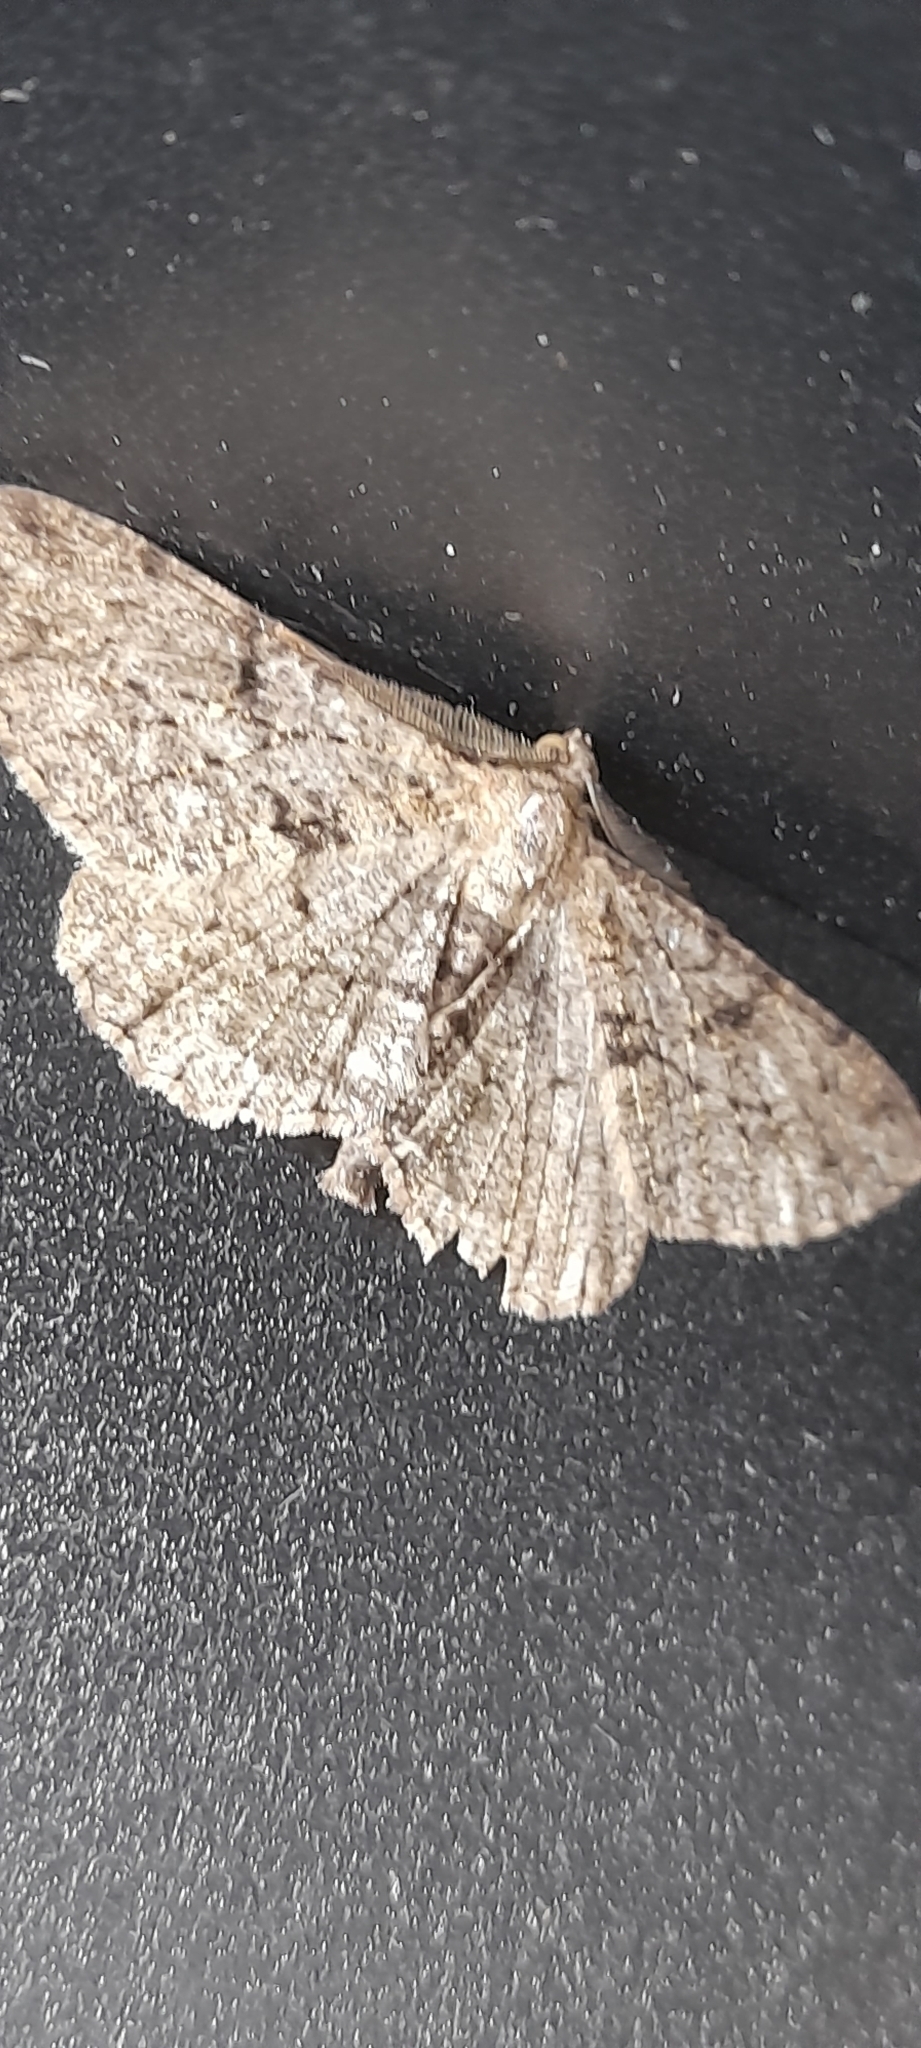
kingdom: Animalia
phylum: Arthropoda
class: Insecta
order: Lepidoptera
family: Geometridae
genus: Peribatodes
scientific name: Peribatodes rhomboidaria
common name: Willow beauty
